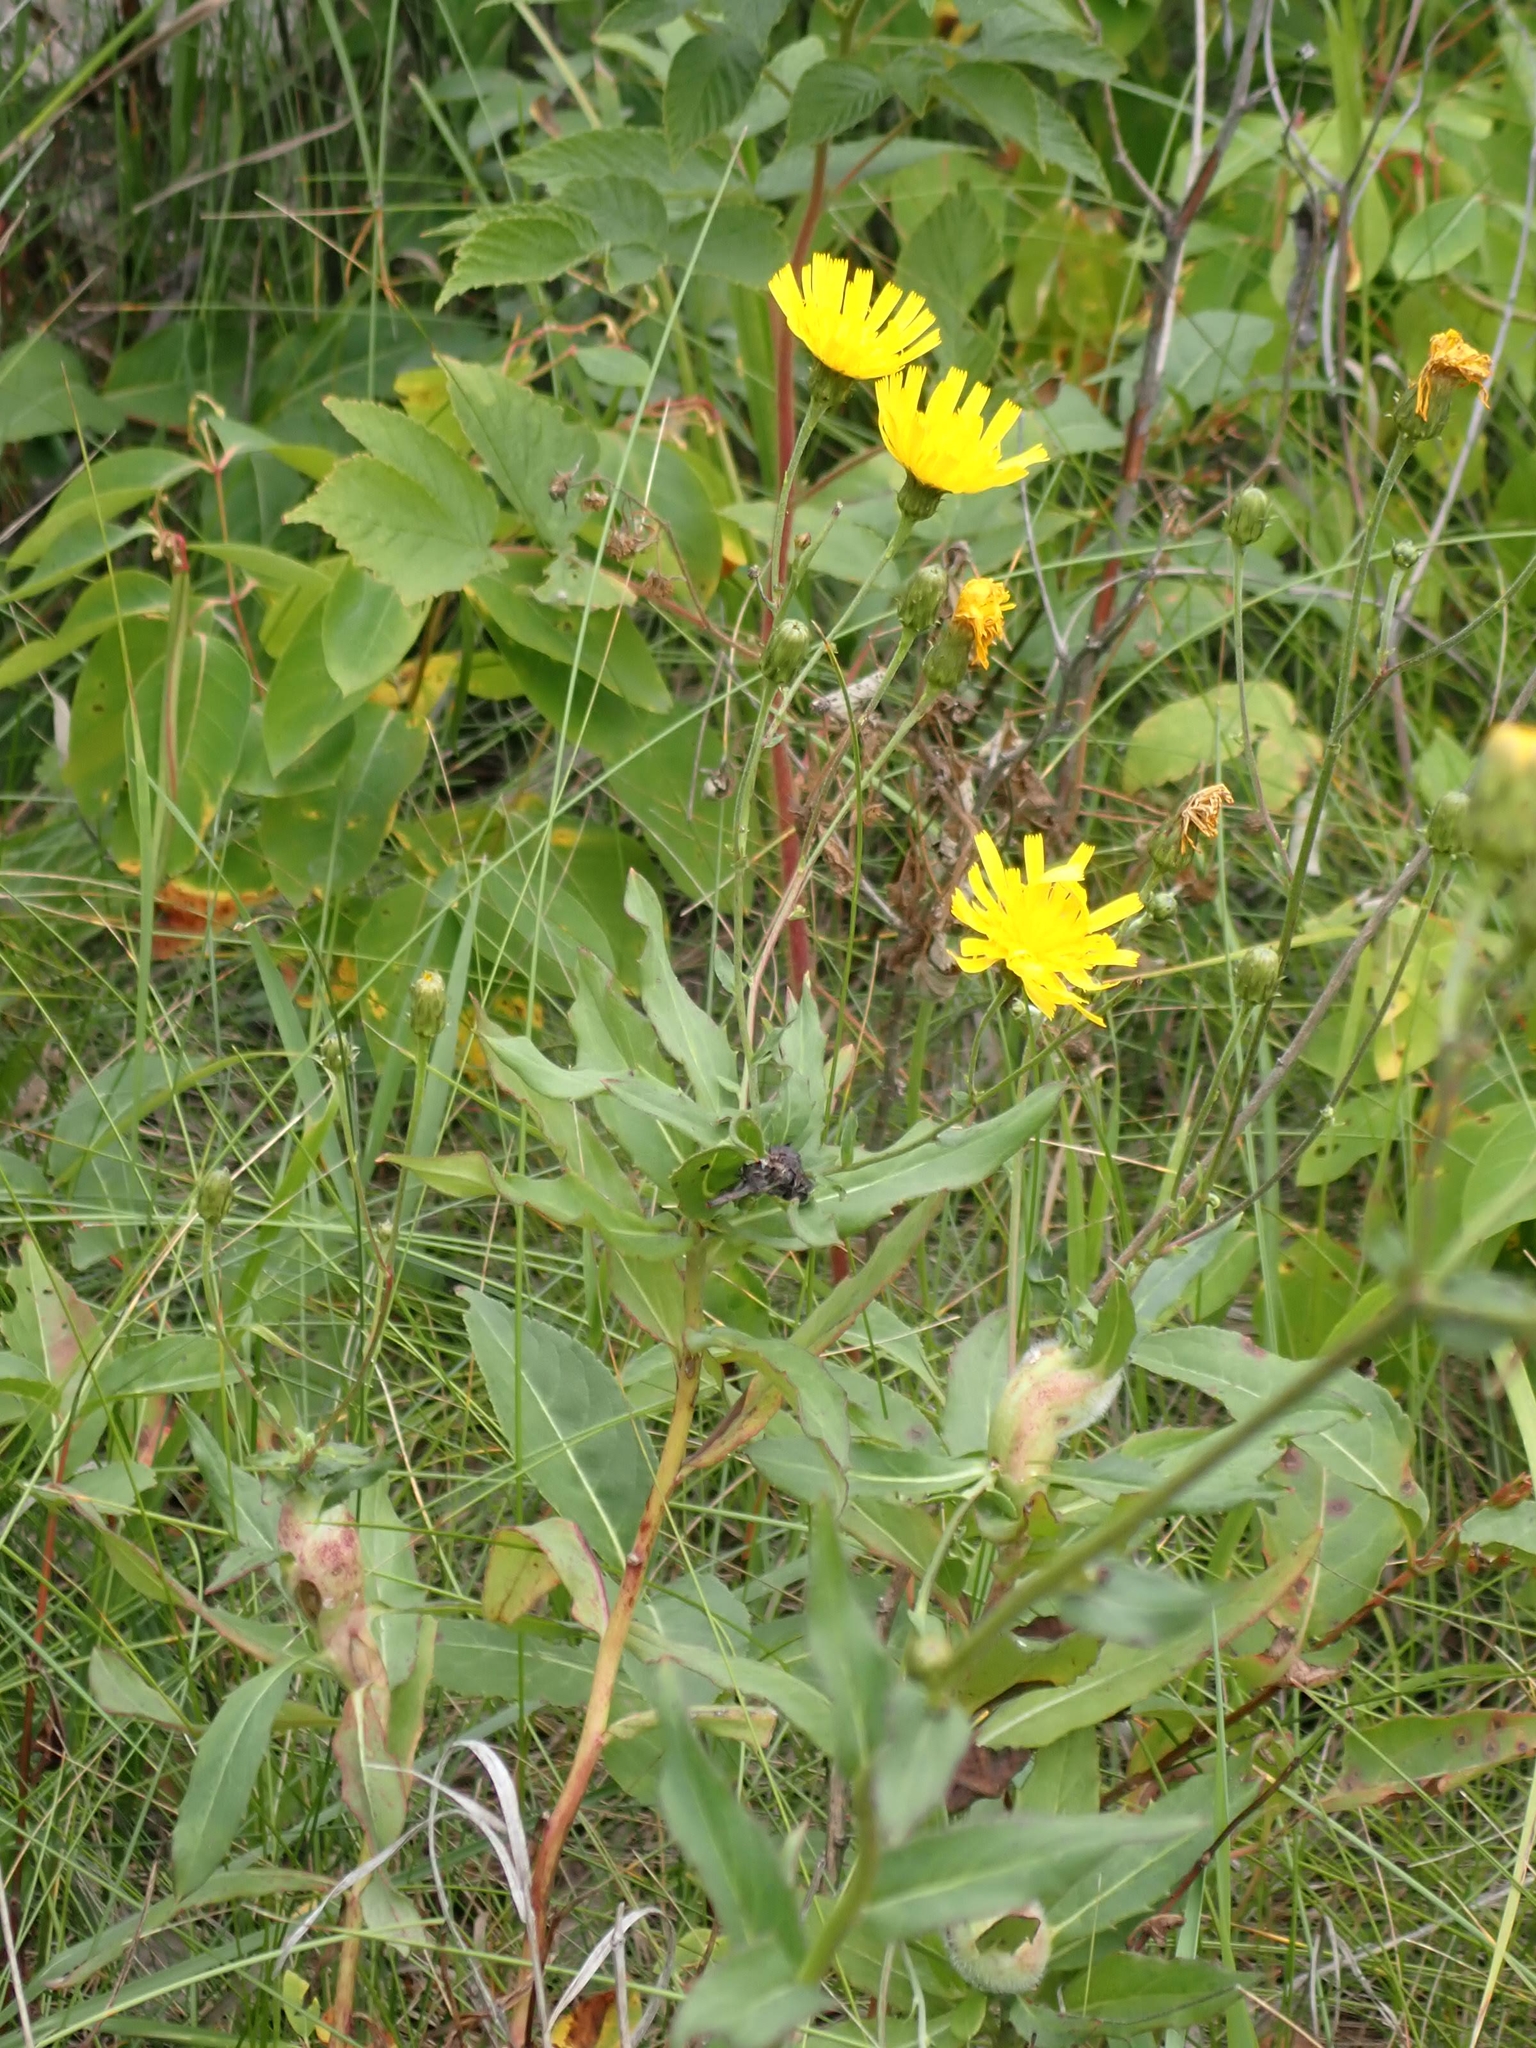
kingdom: Plantae
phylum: Tracheophyta
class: Magnoliopsida
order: Asterales
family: Asteraceae
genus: Hieracium
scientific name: Hieracium umbellatum
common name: Northern hawkweed
